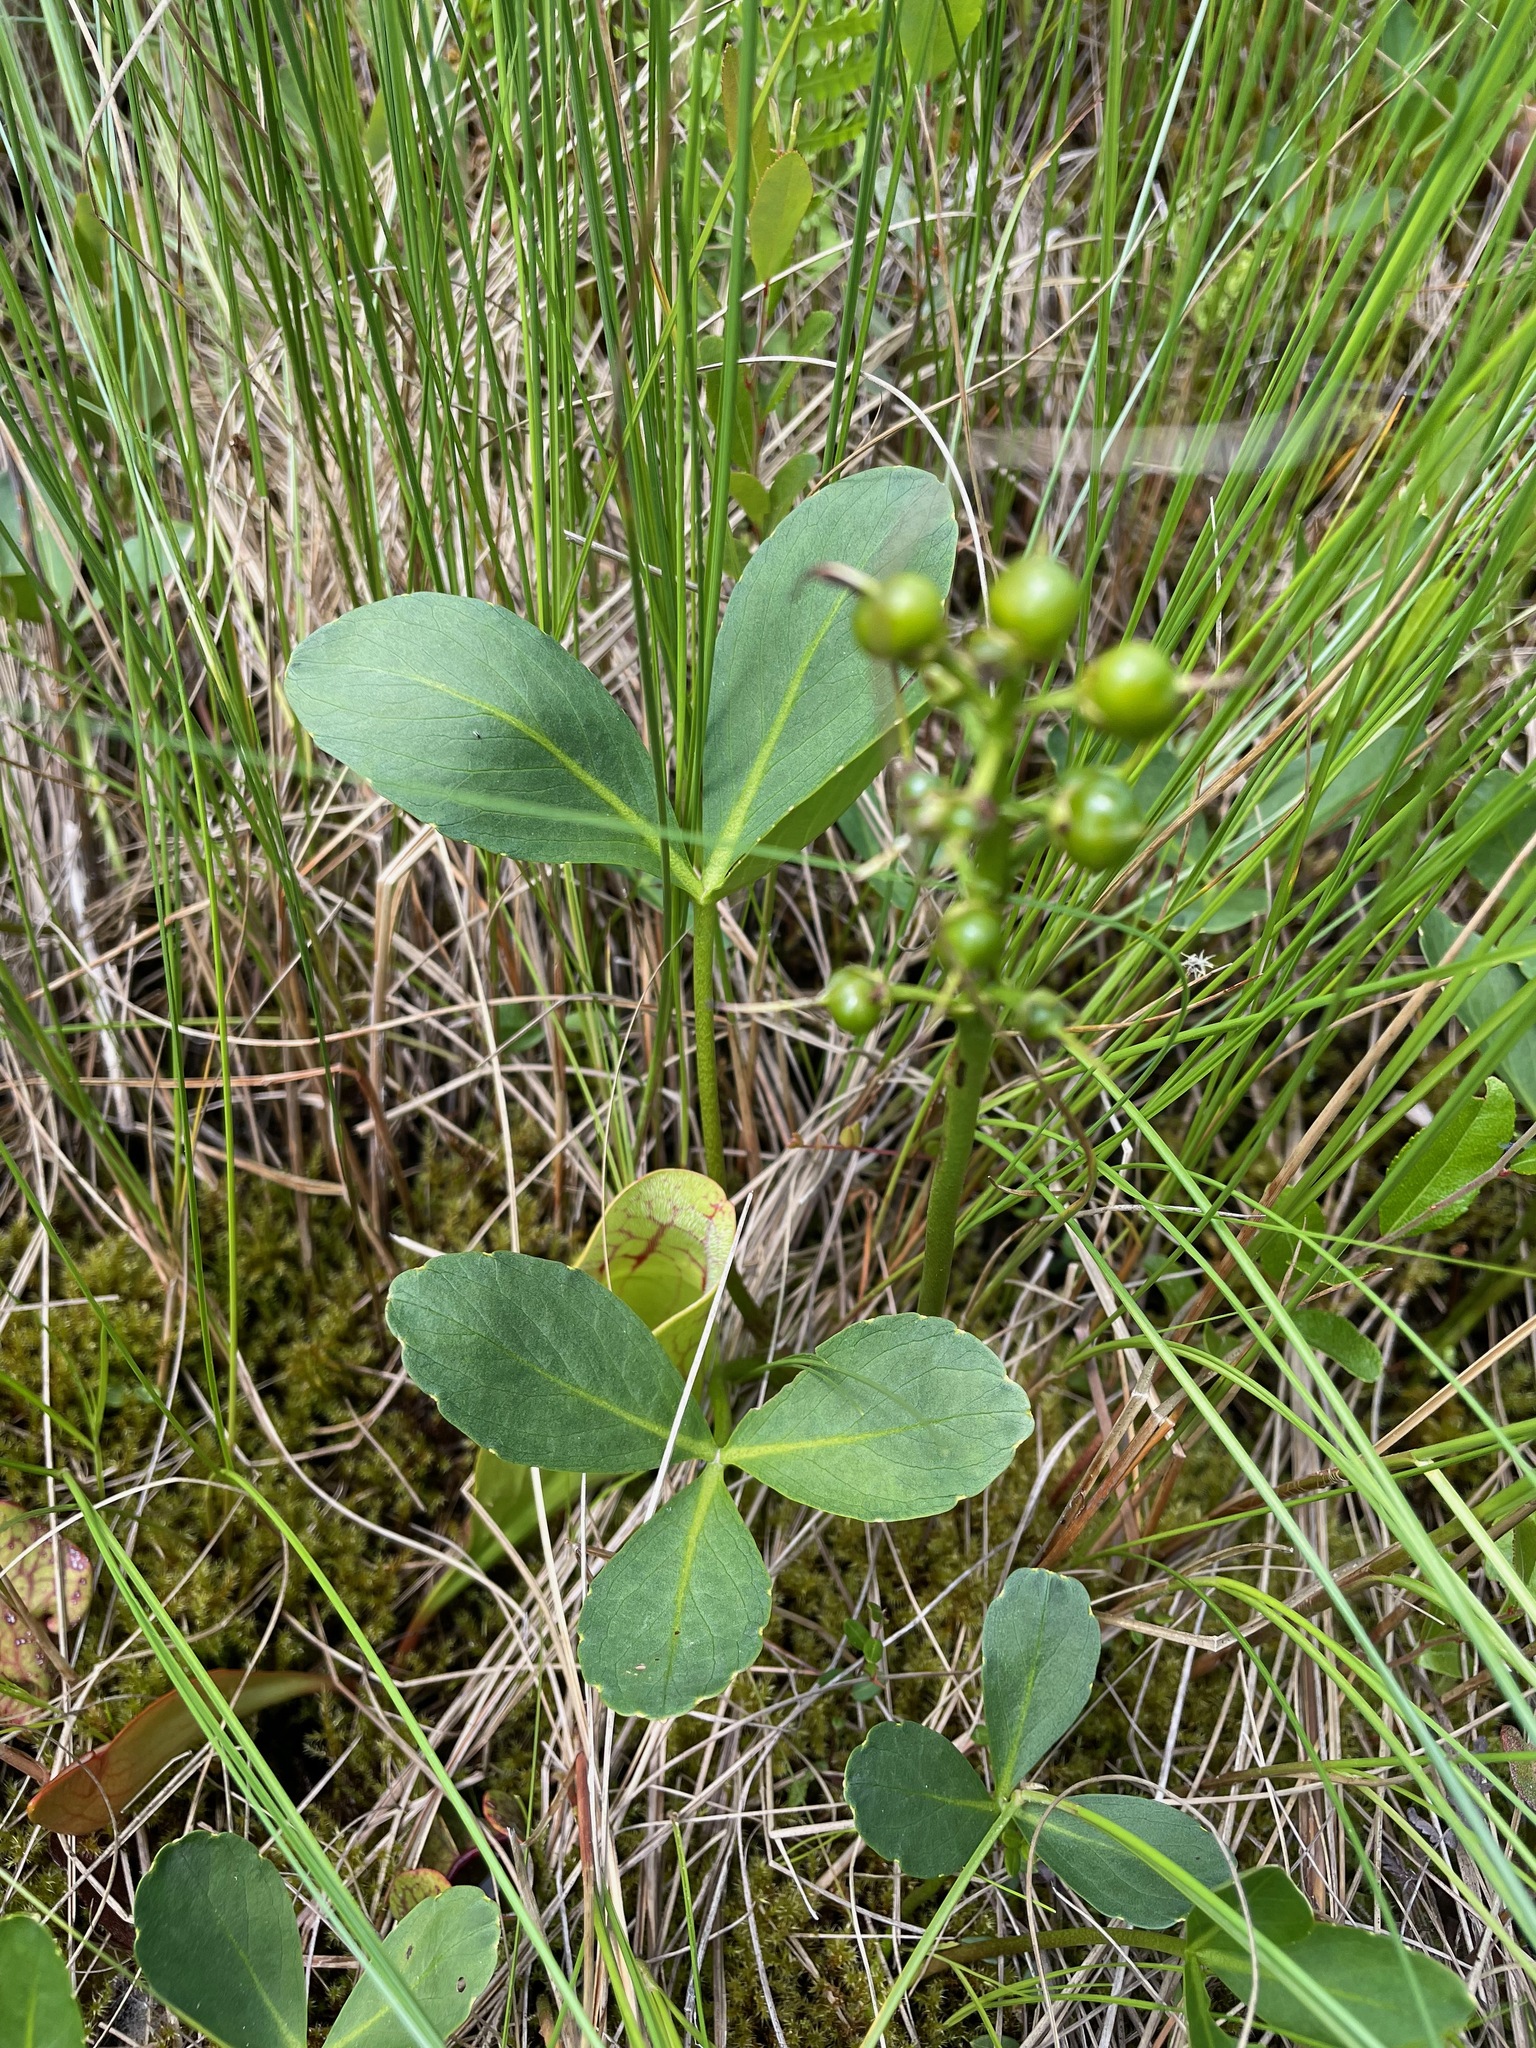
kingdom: Plantae
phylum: Tracheophyta
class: Magnoliopsida
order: Asterales
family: Menyanthaceae
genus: Menyanthes
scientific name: Menyanthes trifoliata
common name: Bogbean
